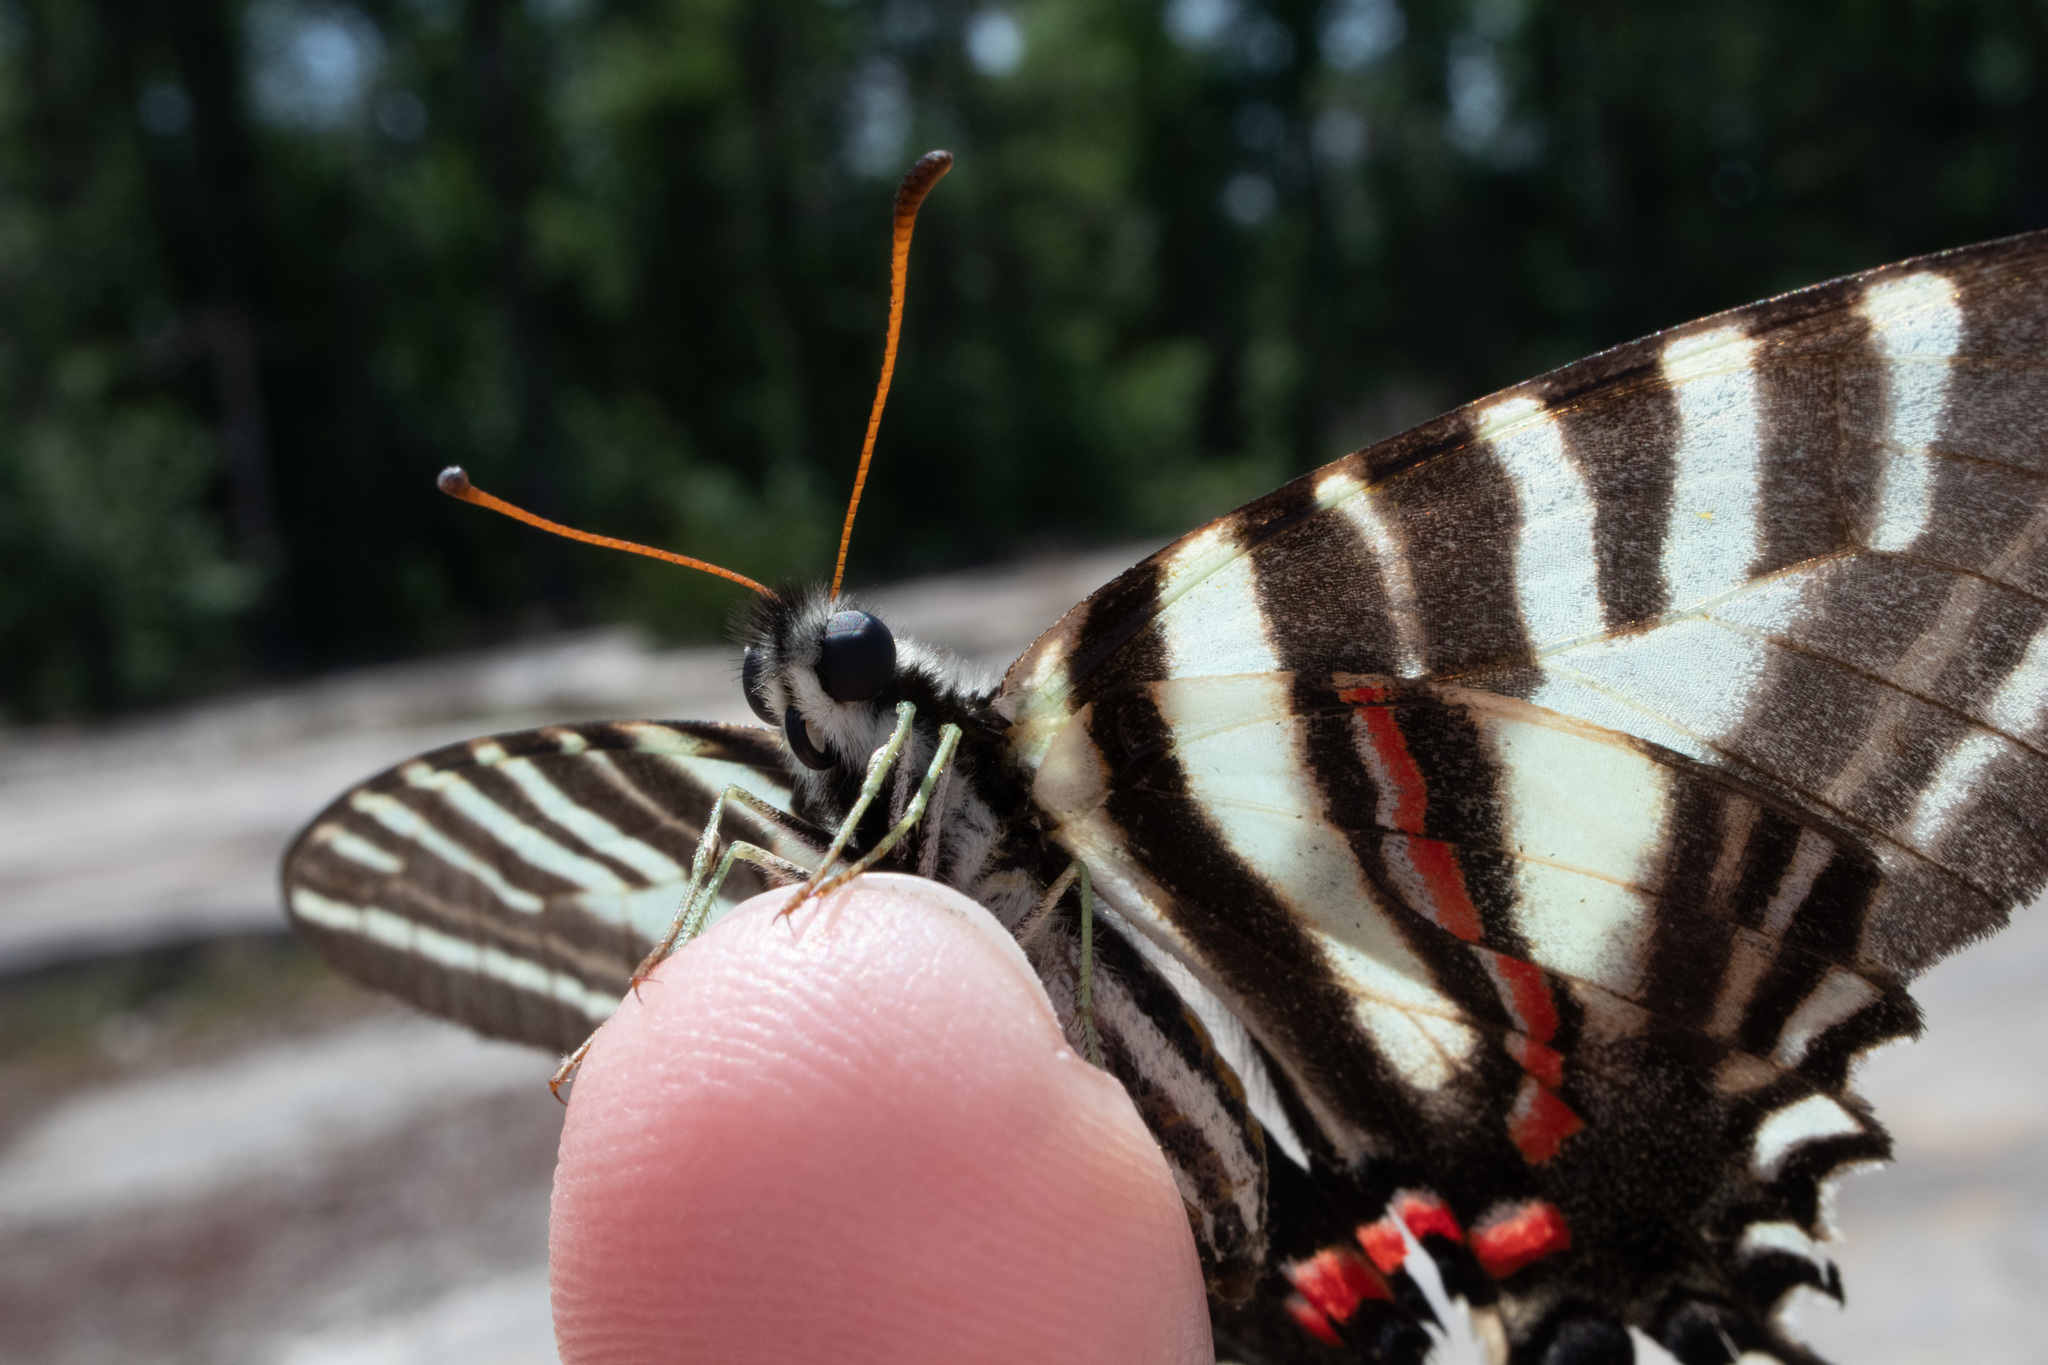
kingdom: Animalia
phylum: Arthropoda
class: Insecta
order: Lepidoptera
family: Papilionidae
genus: Protographium
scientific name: Protographium marcellus
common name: Zebra swallowtail
